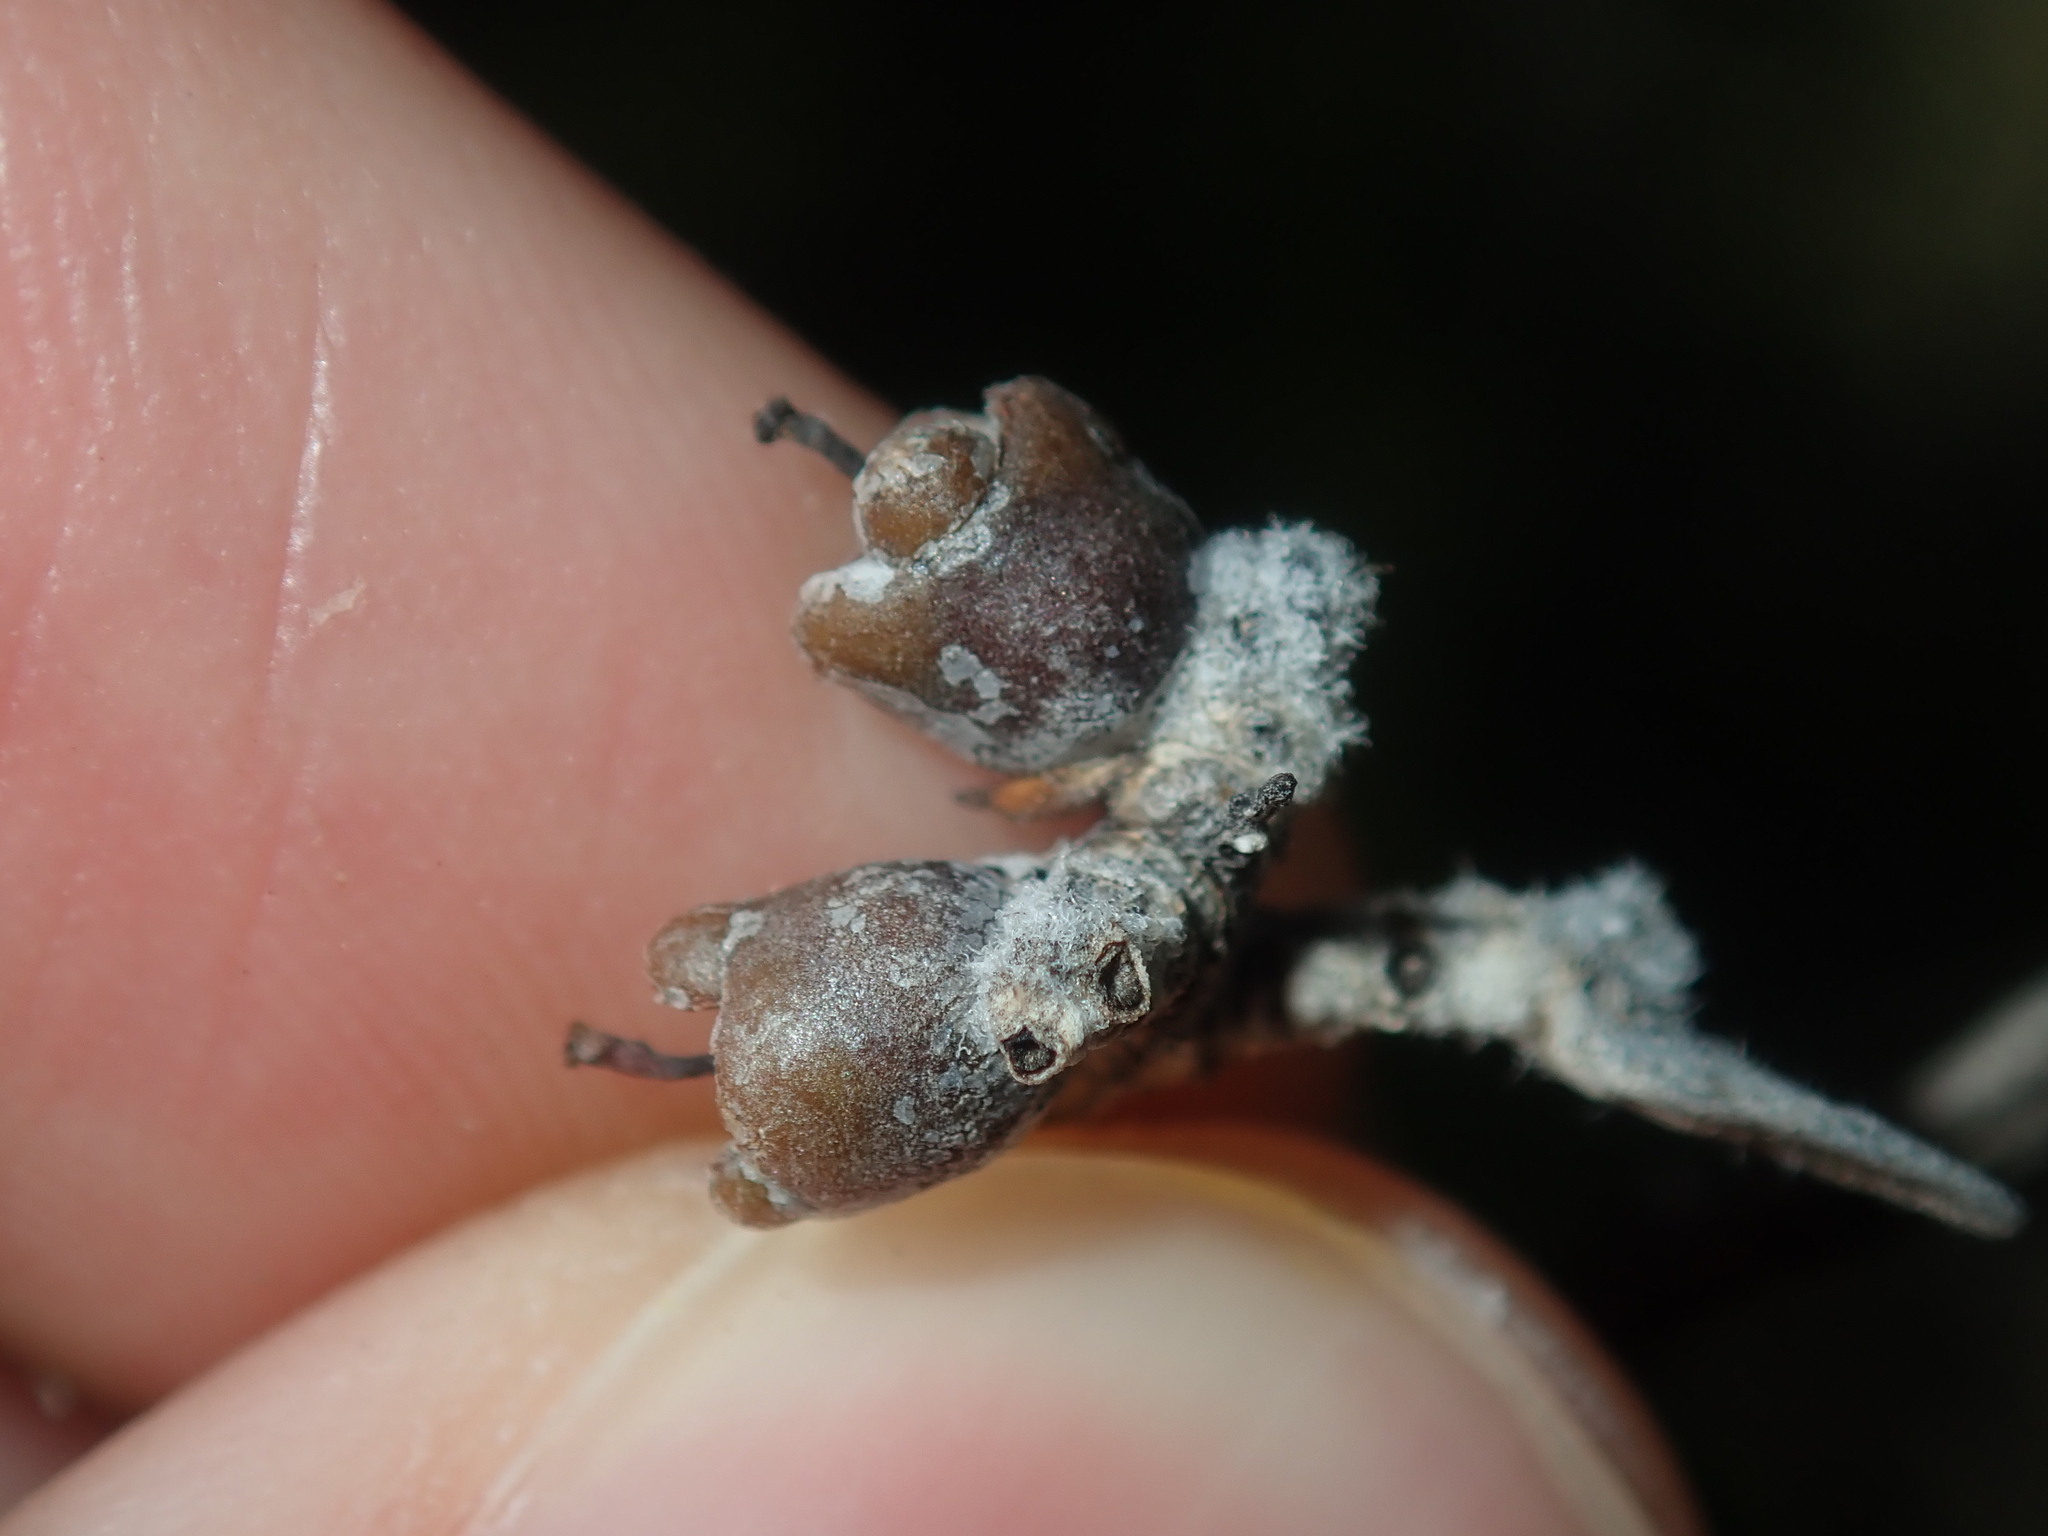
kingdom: Plantae
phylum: Tracheophyta
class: Magnoliopsida
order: Myrtales
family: Myrtaceae
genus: Melaleuca
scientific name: Melaleuca cardiophylla
